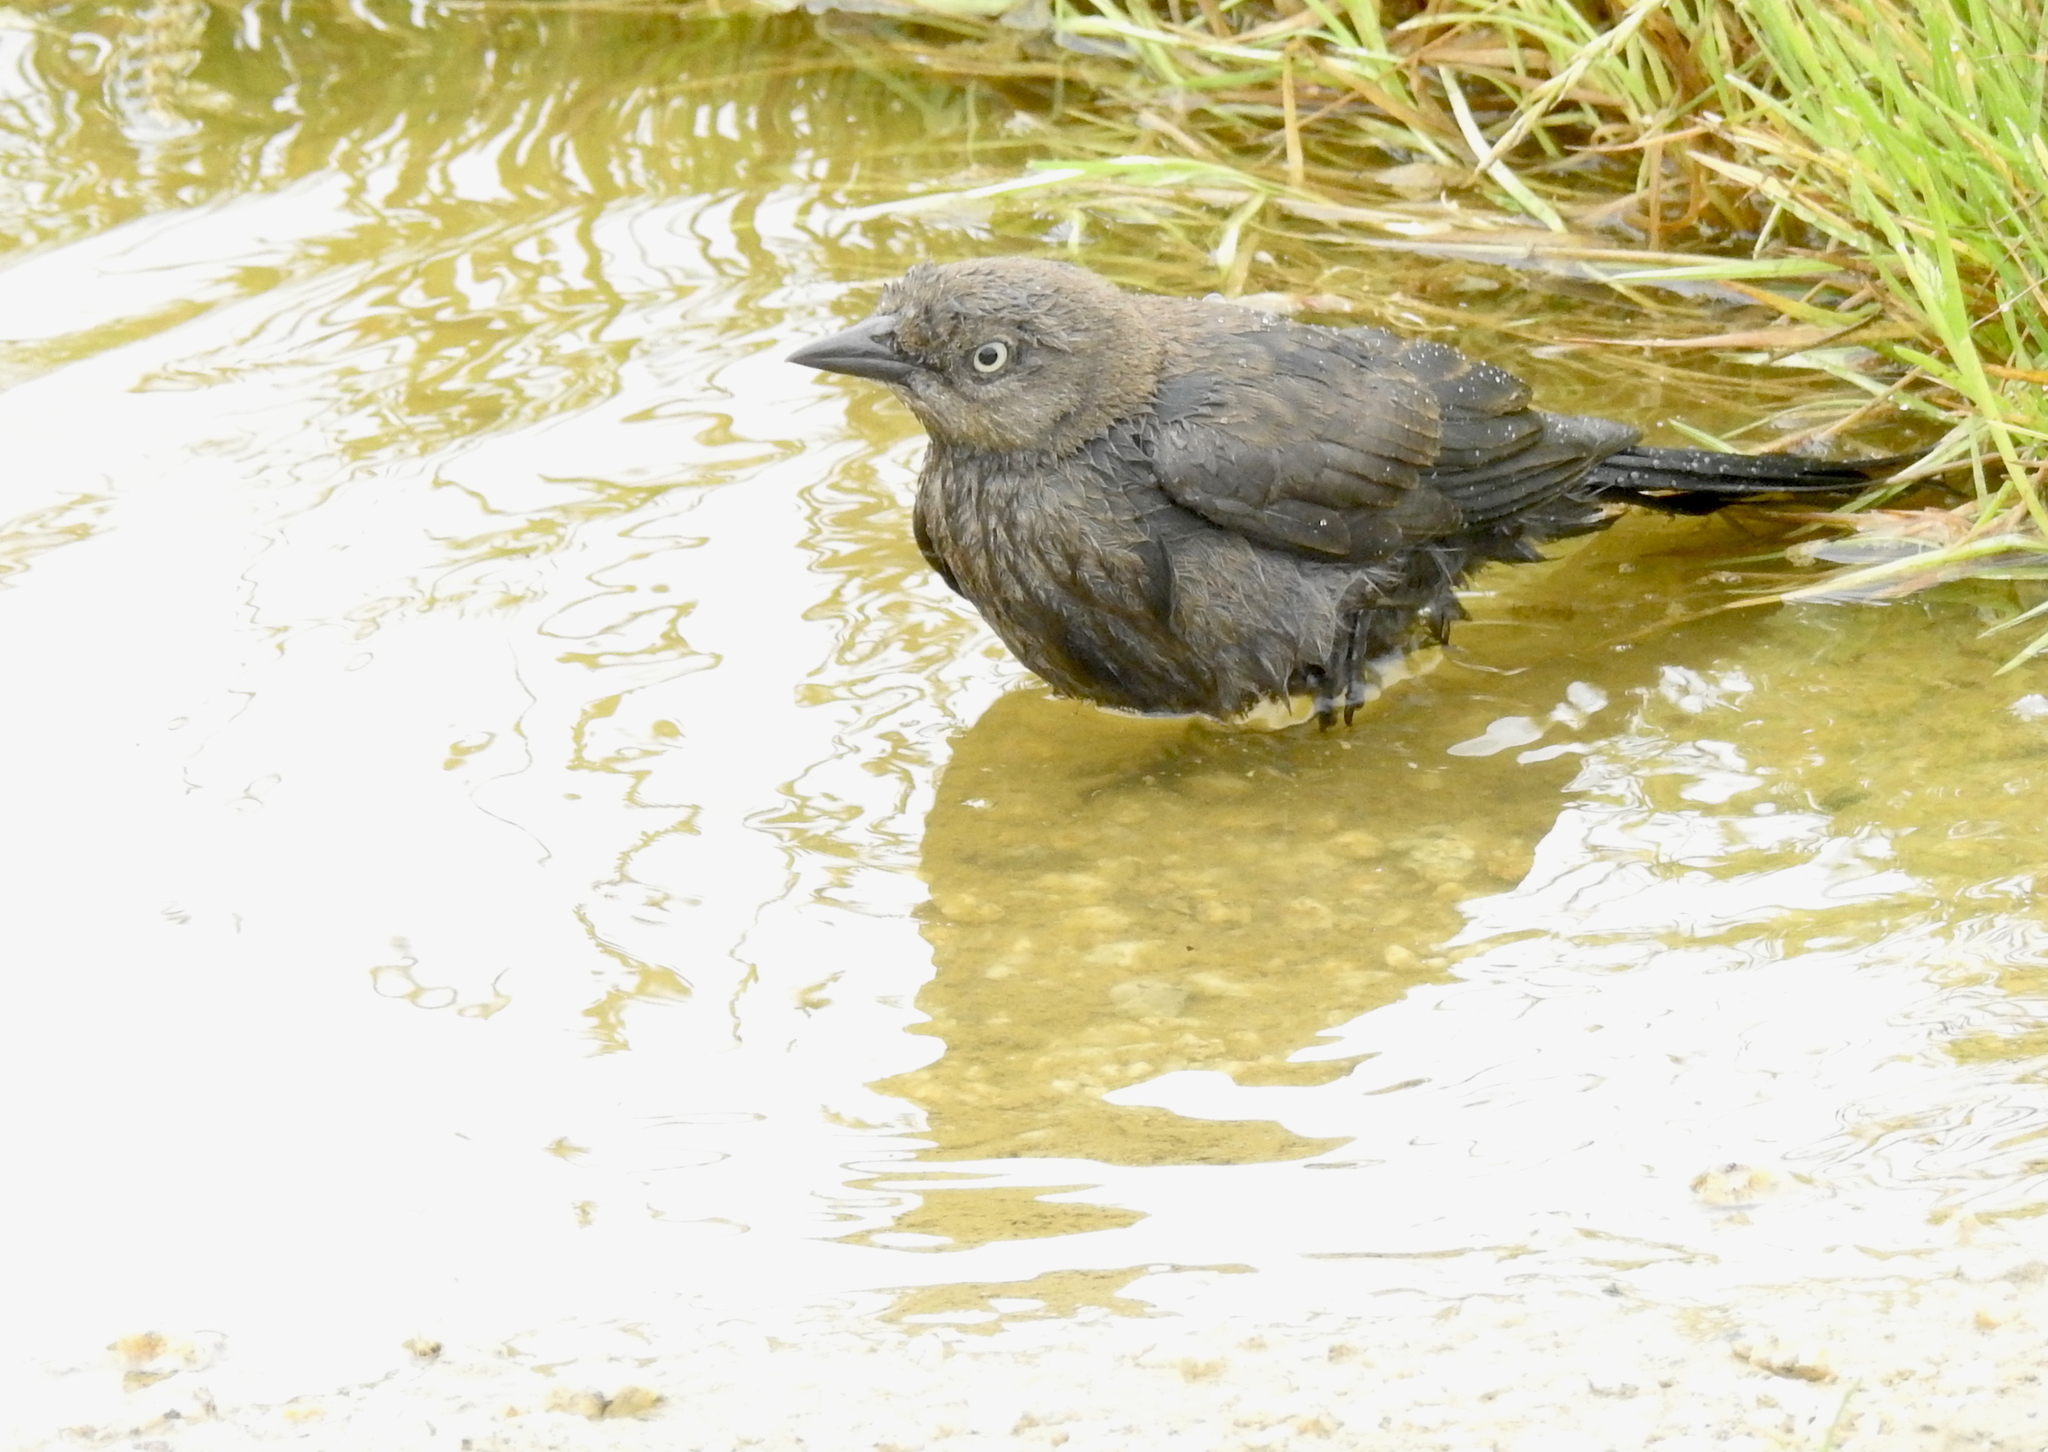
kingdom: Animalia
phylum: Chordata
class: Aves
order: Passeriformes
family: Icteridae
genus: Euphagus
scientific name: Euphagus cyanocephalus
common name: Brewer's blackbird
